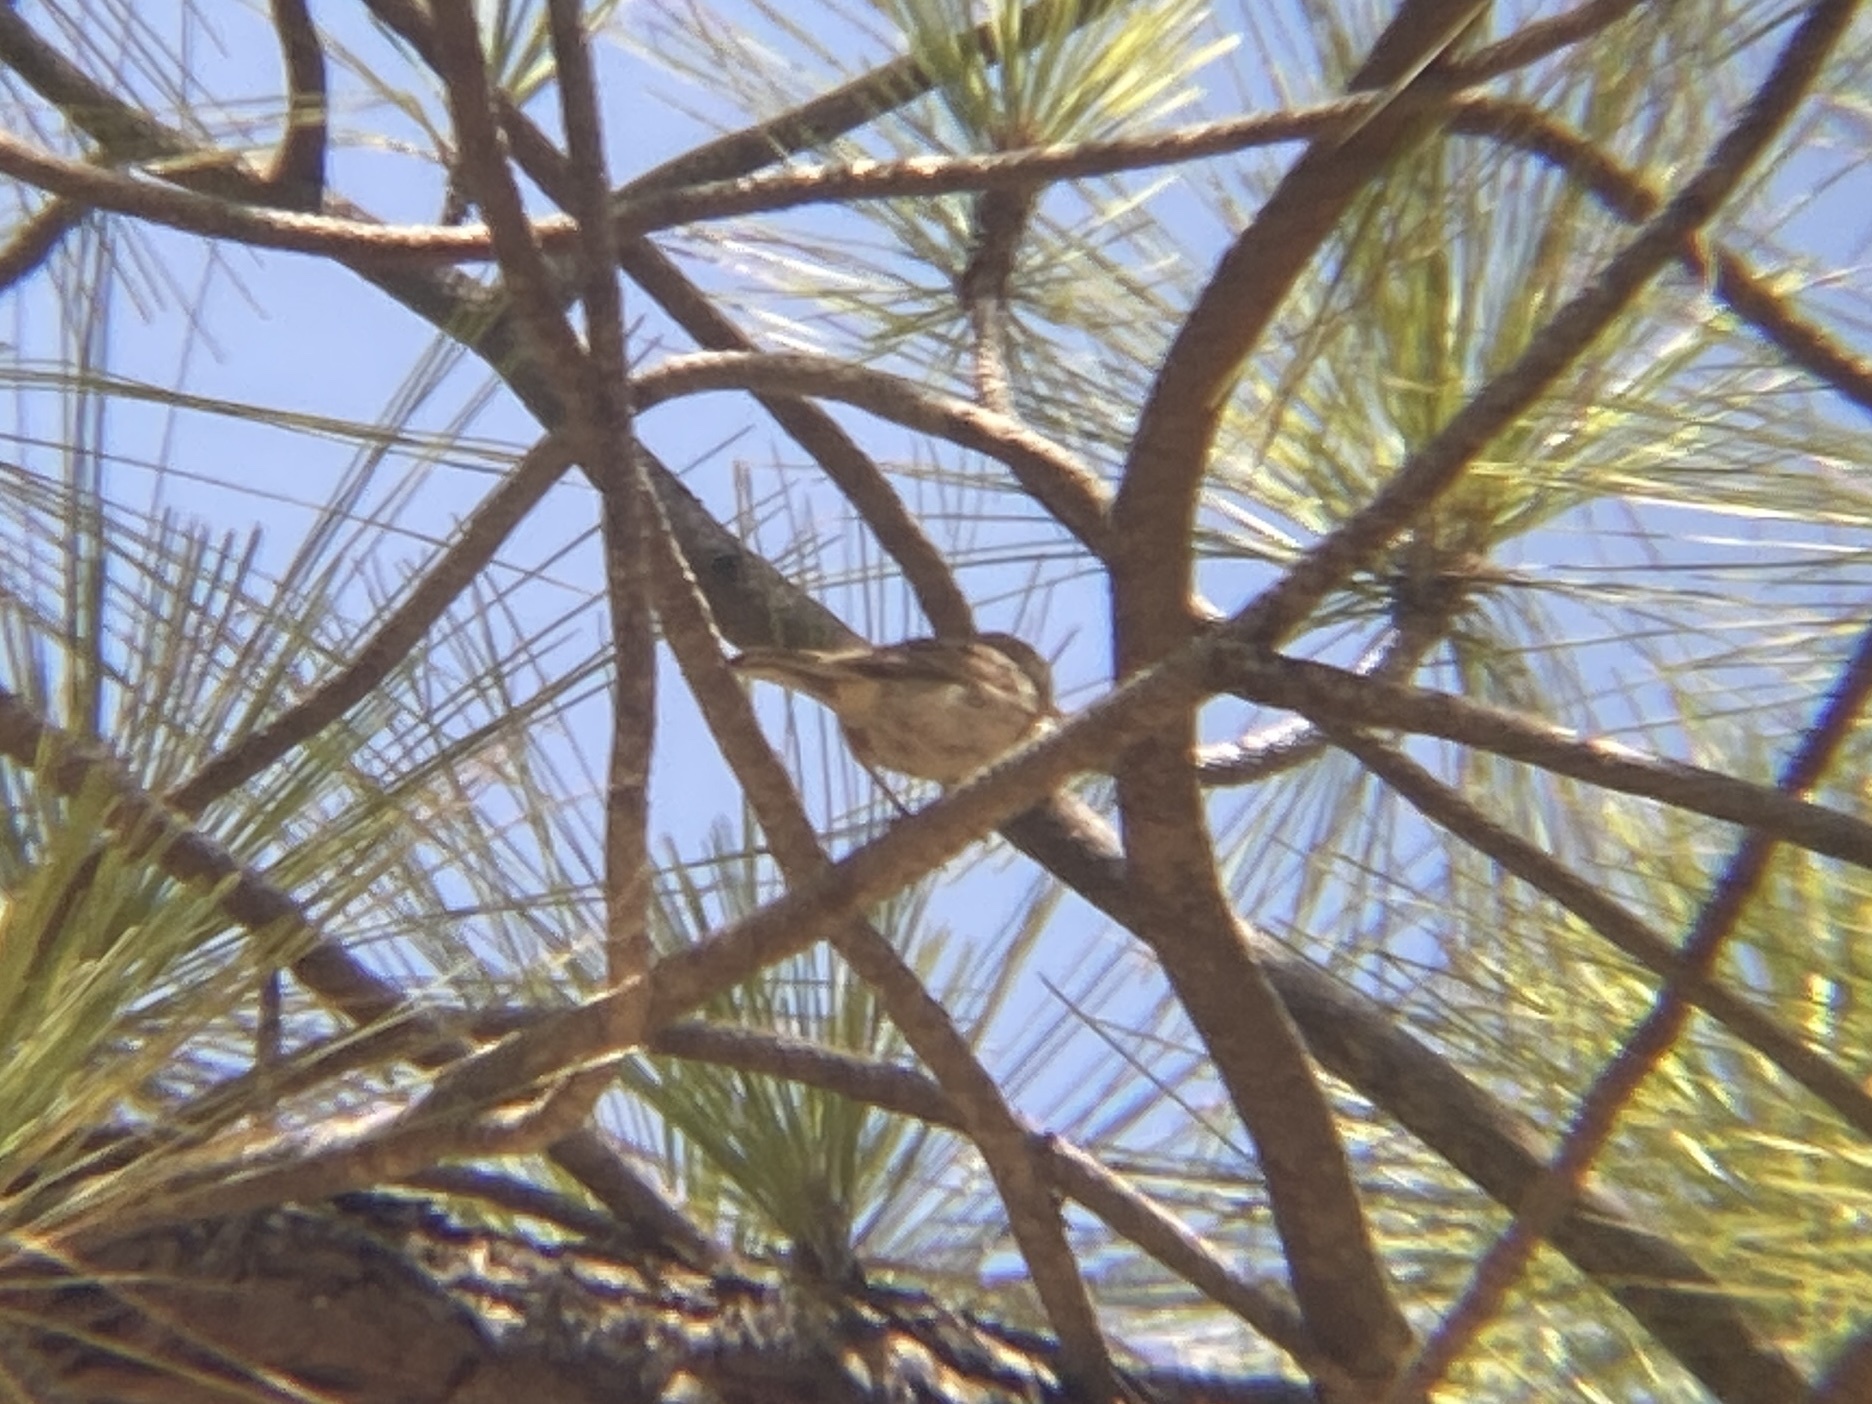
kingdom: Animalia
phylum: Chordata
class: Aves
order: Passeriformes
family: Motacillidae
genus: Anthus
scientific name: Anthus berthelotii
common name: Berthelot's pipit
